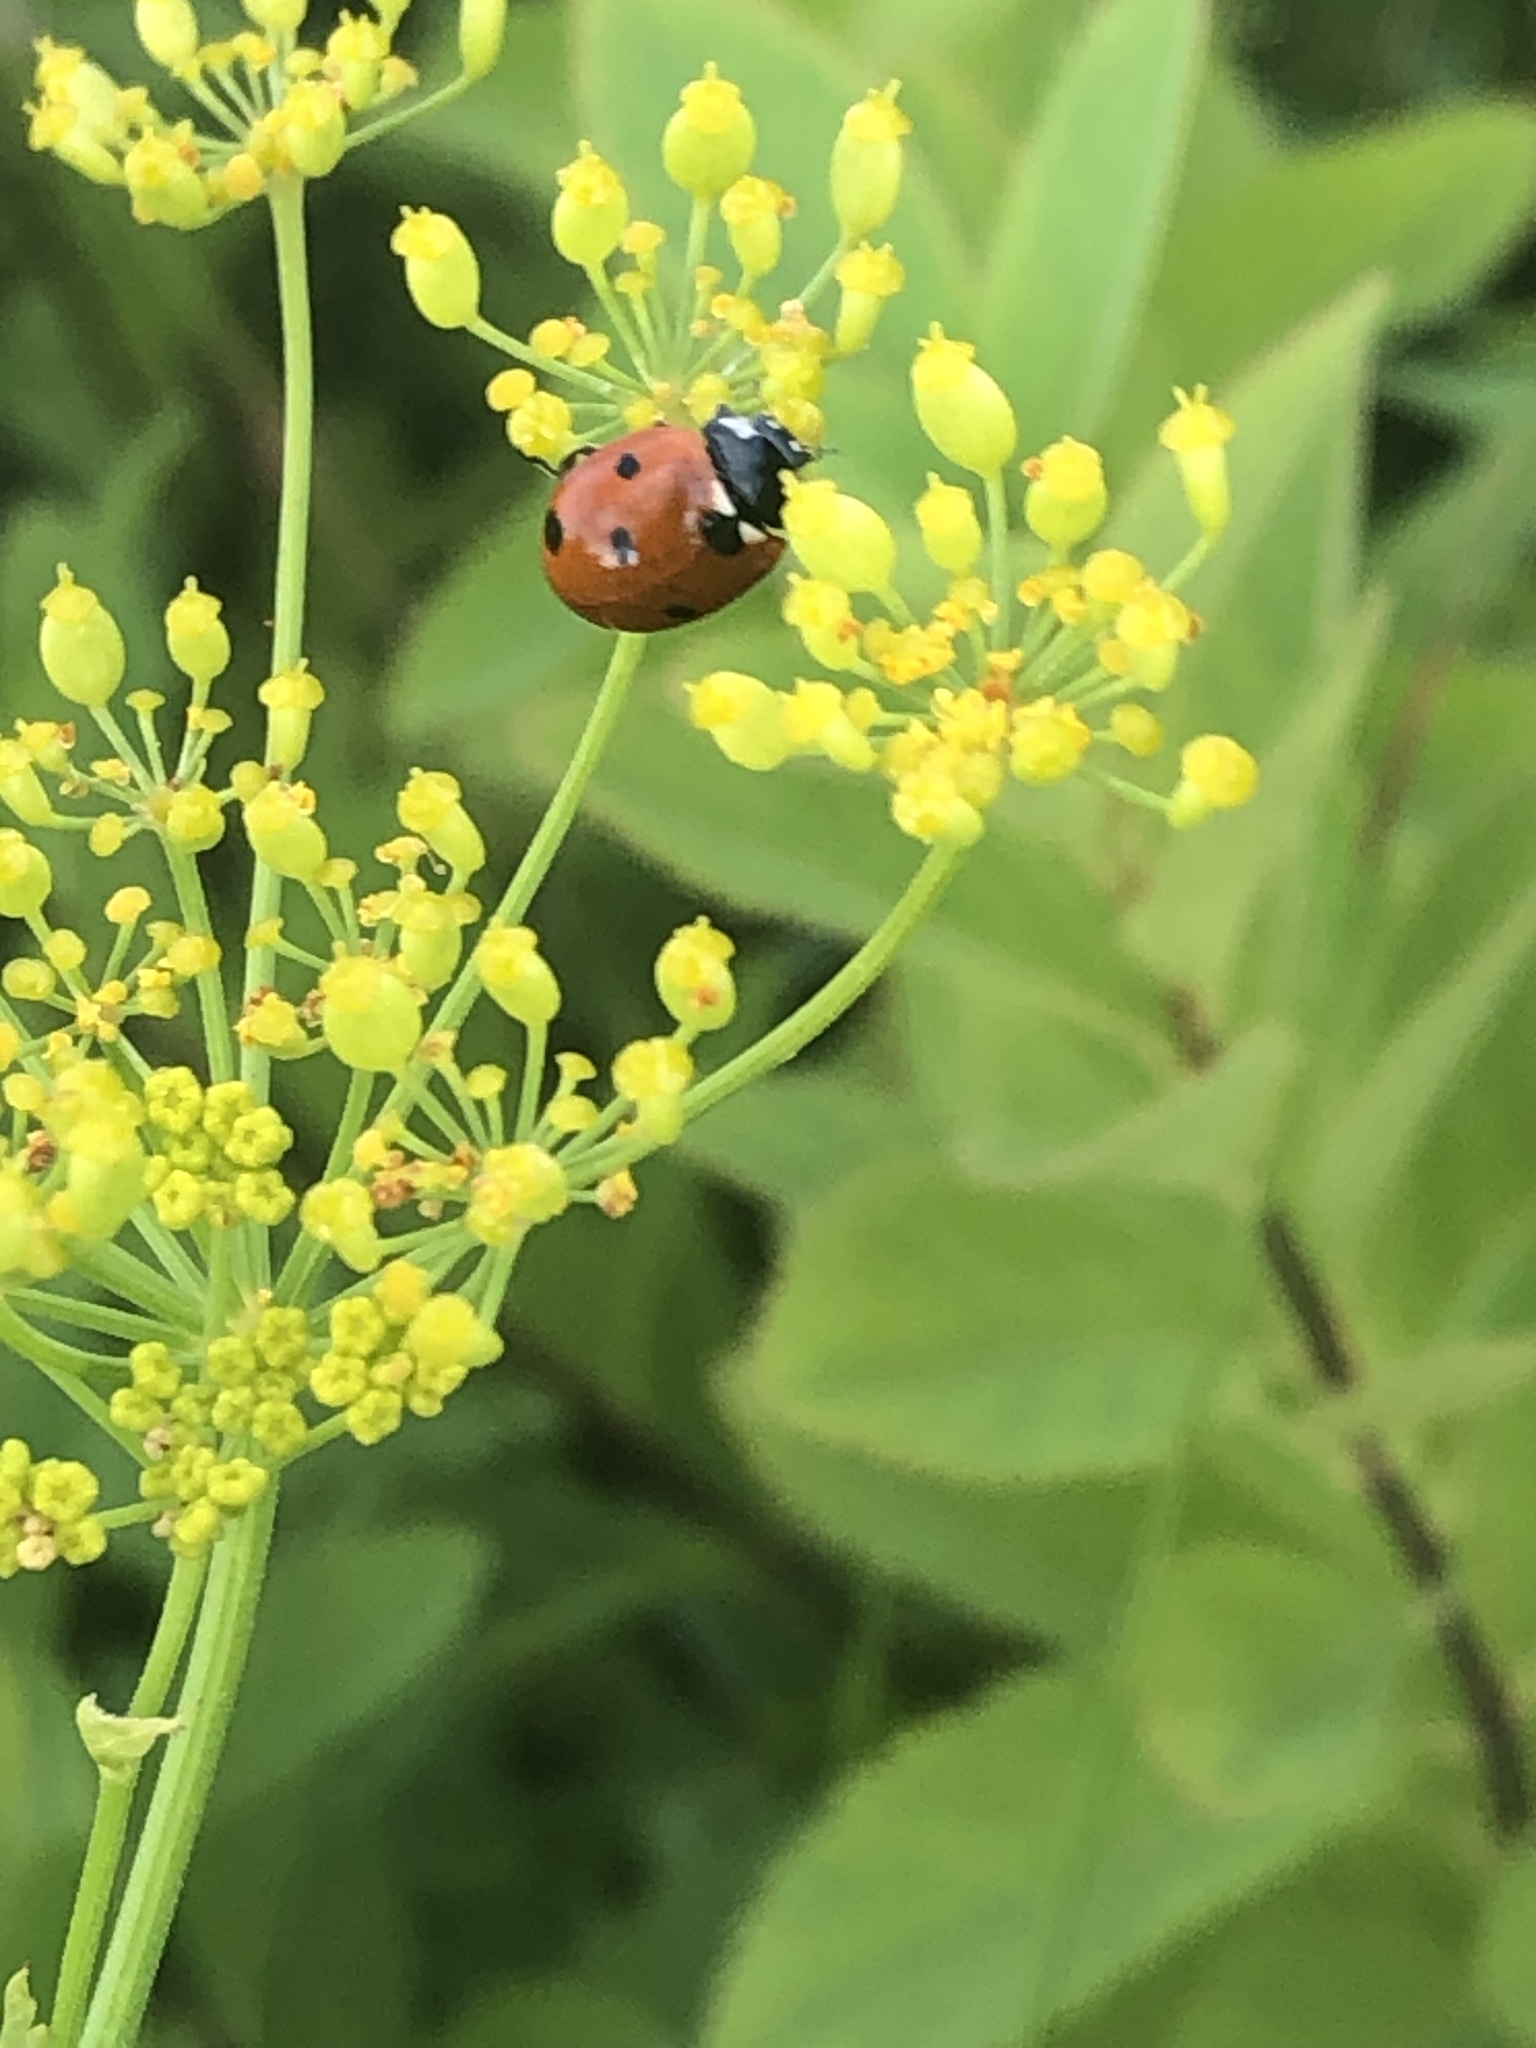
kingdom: Animalia
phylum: Arthropoda
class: Insecta
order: Coleoptera
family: Coccinellidae
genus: Coccinella
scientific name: Coccinella septempunctata
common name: Sevenspotted lady beetle
